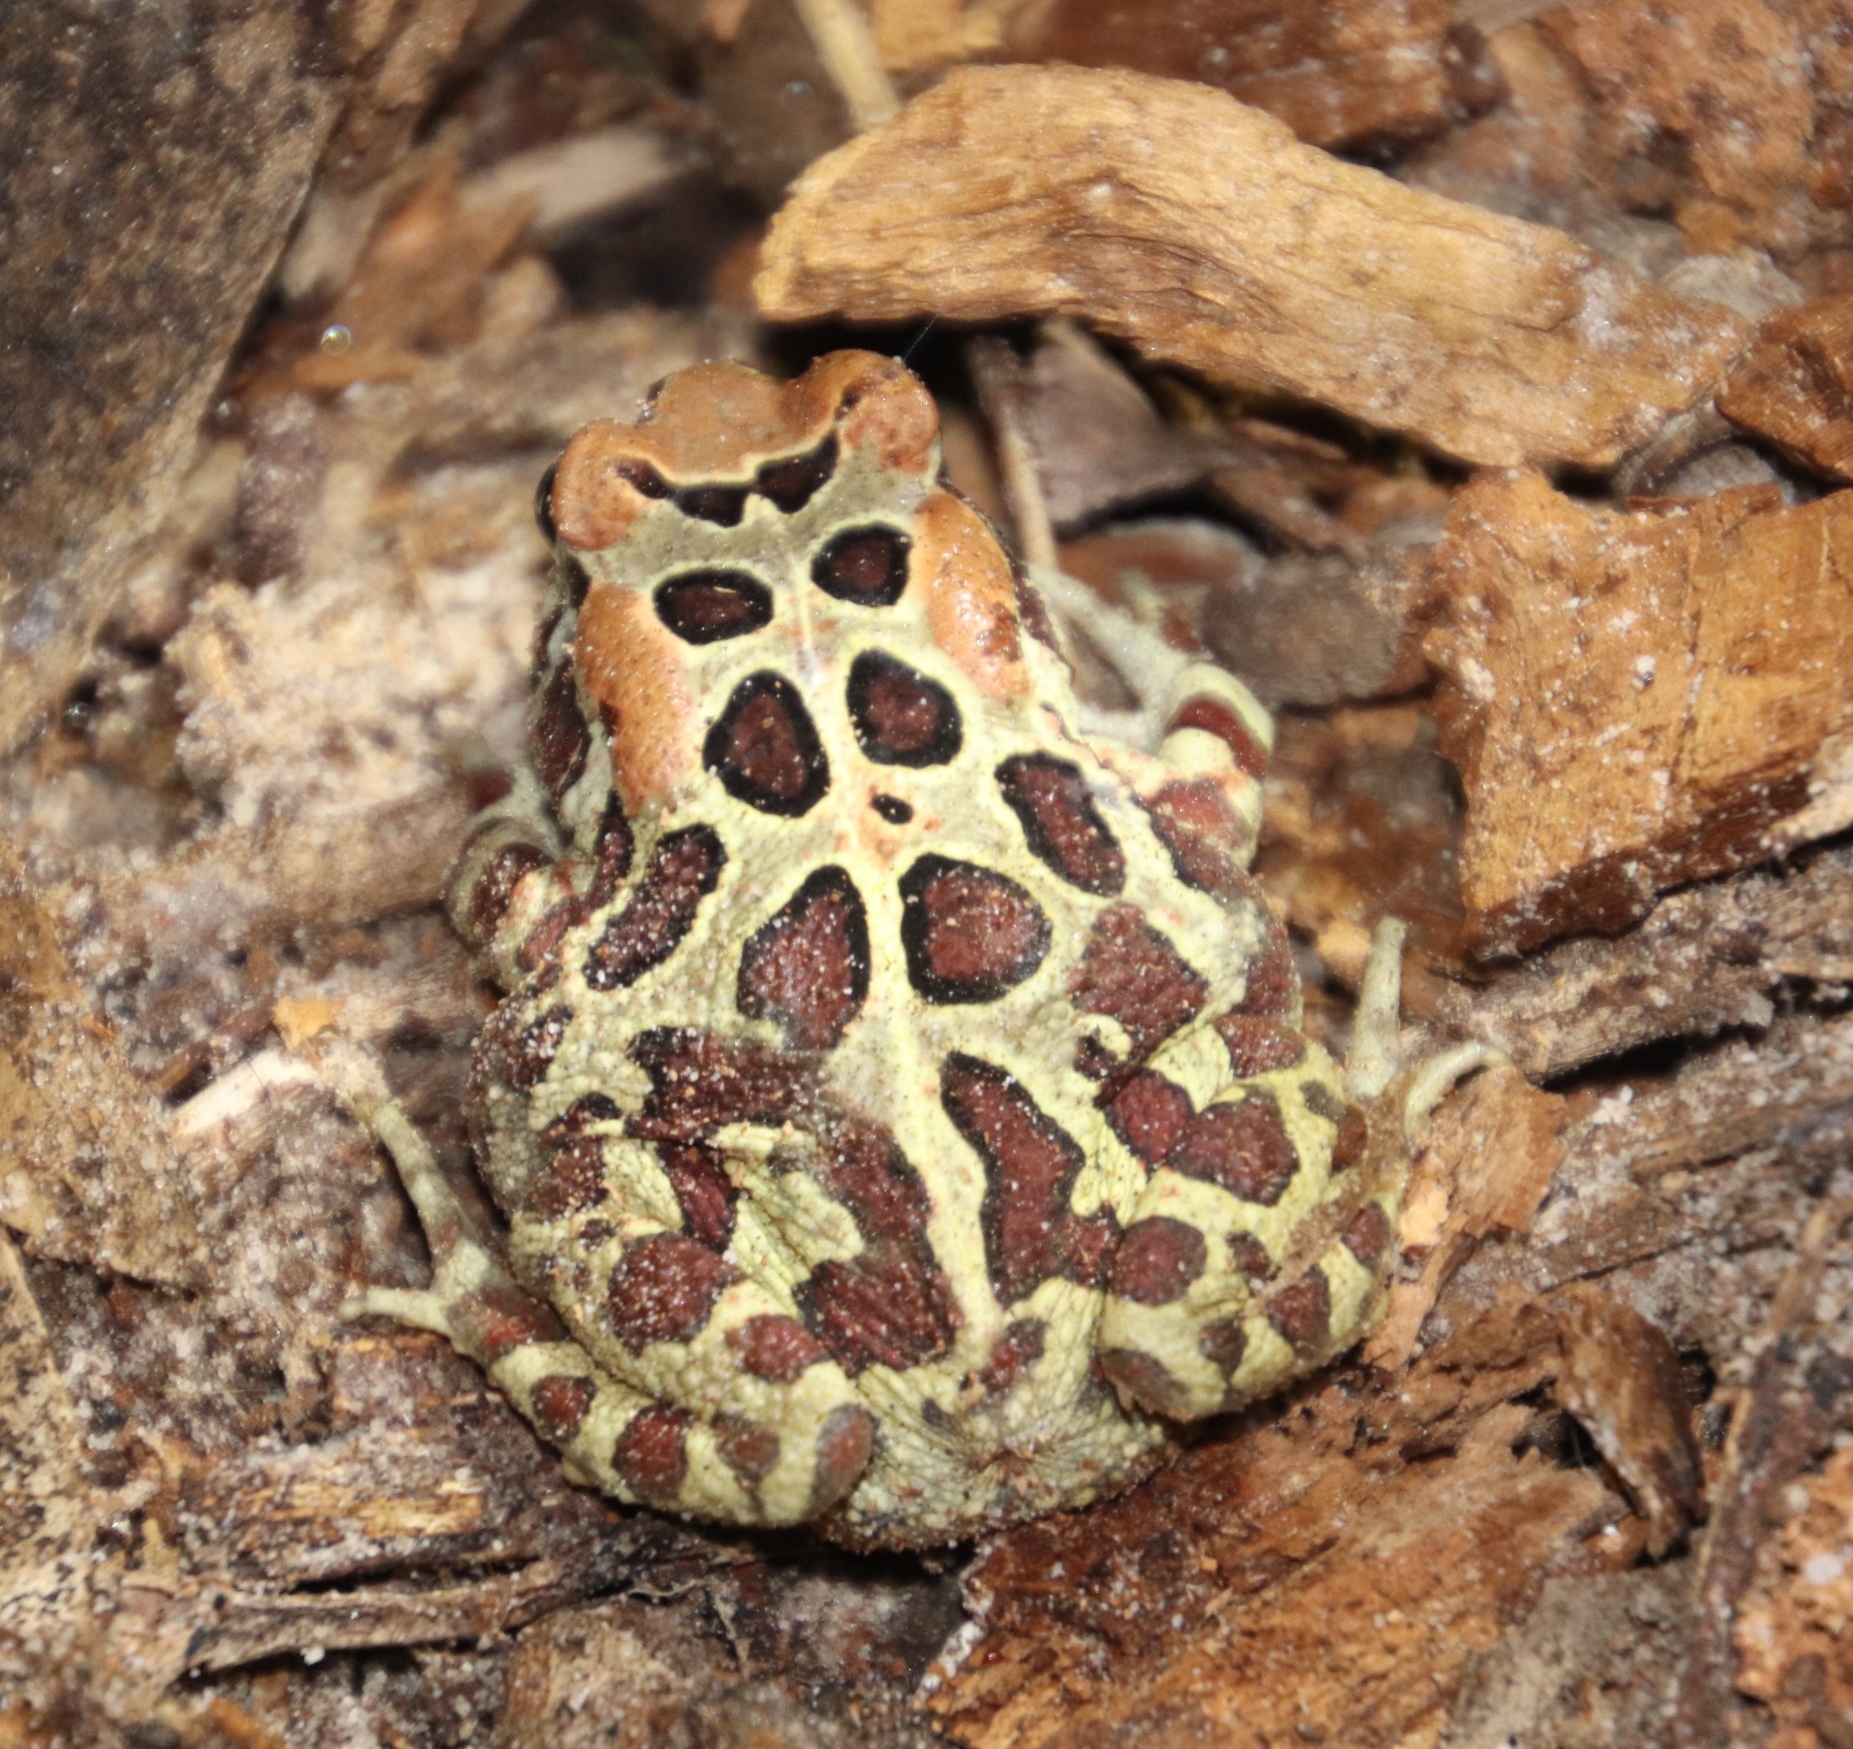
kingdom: Animalia
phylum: Chordata
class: Amphibia
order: Anura
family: Bufonidae
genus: Sclerophrys
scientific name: Sclerophrys pantherina
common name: Panther toad
